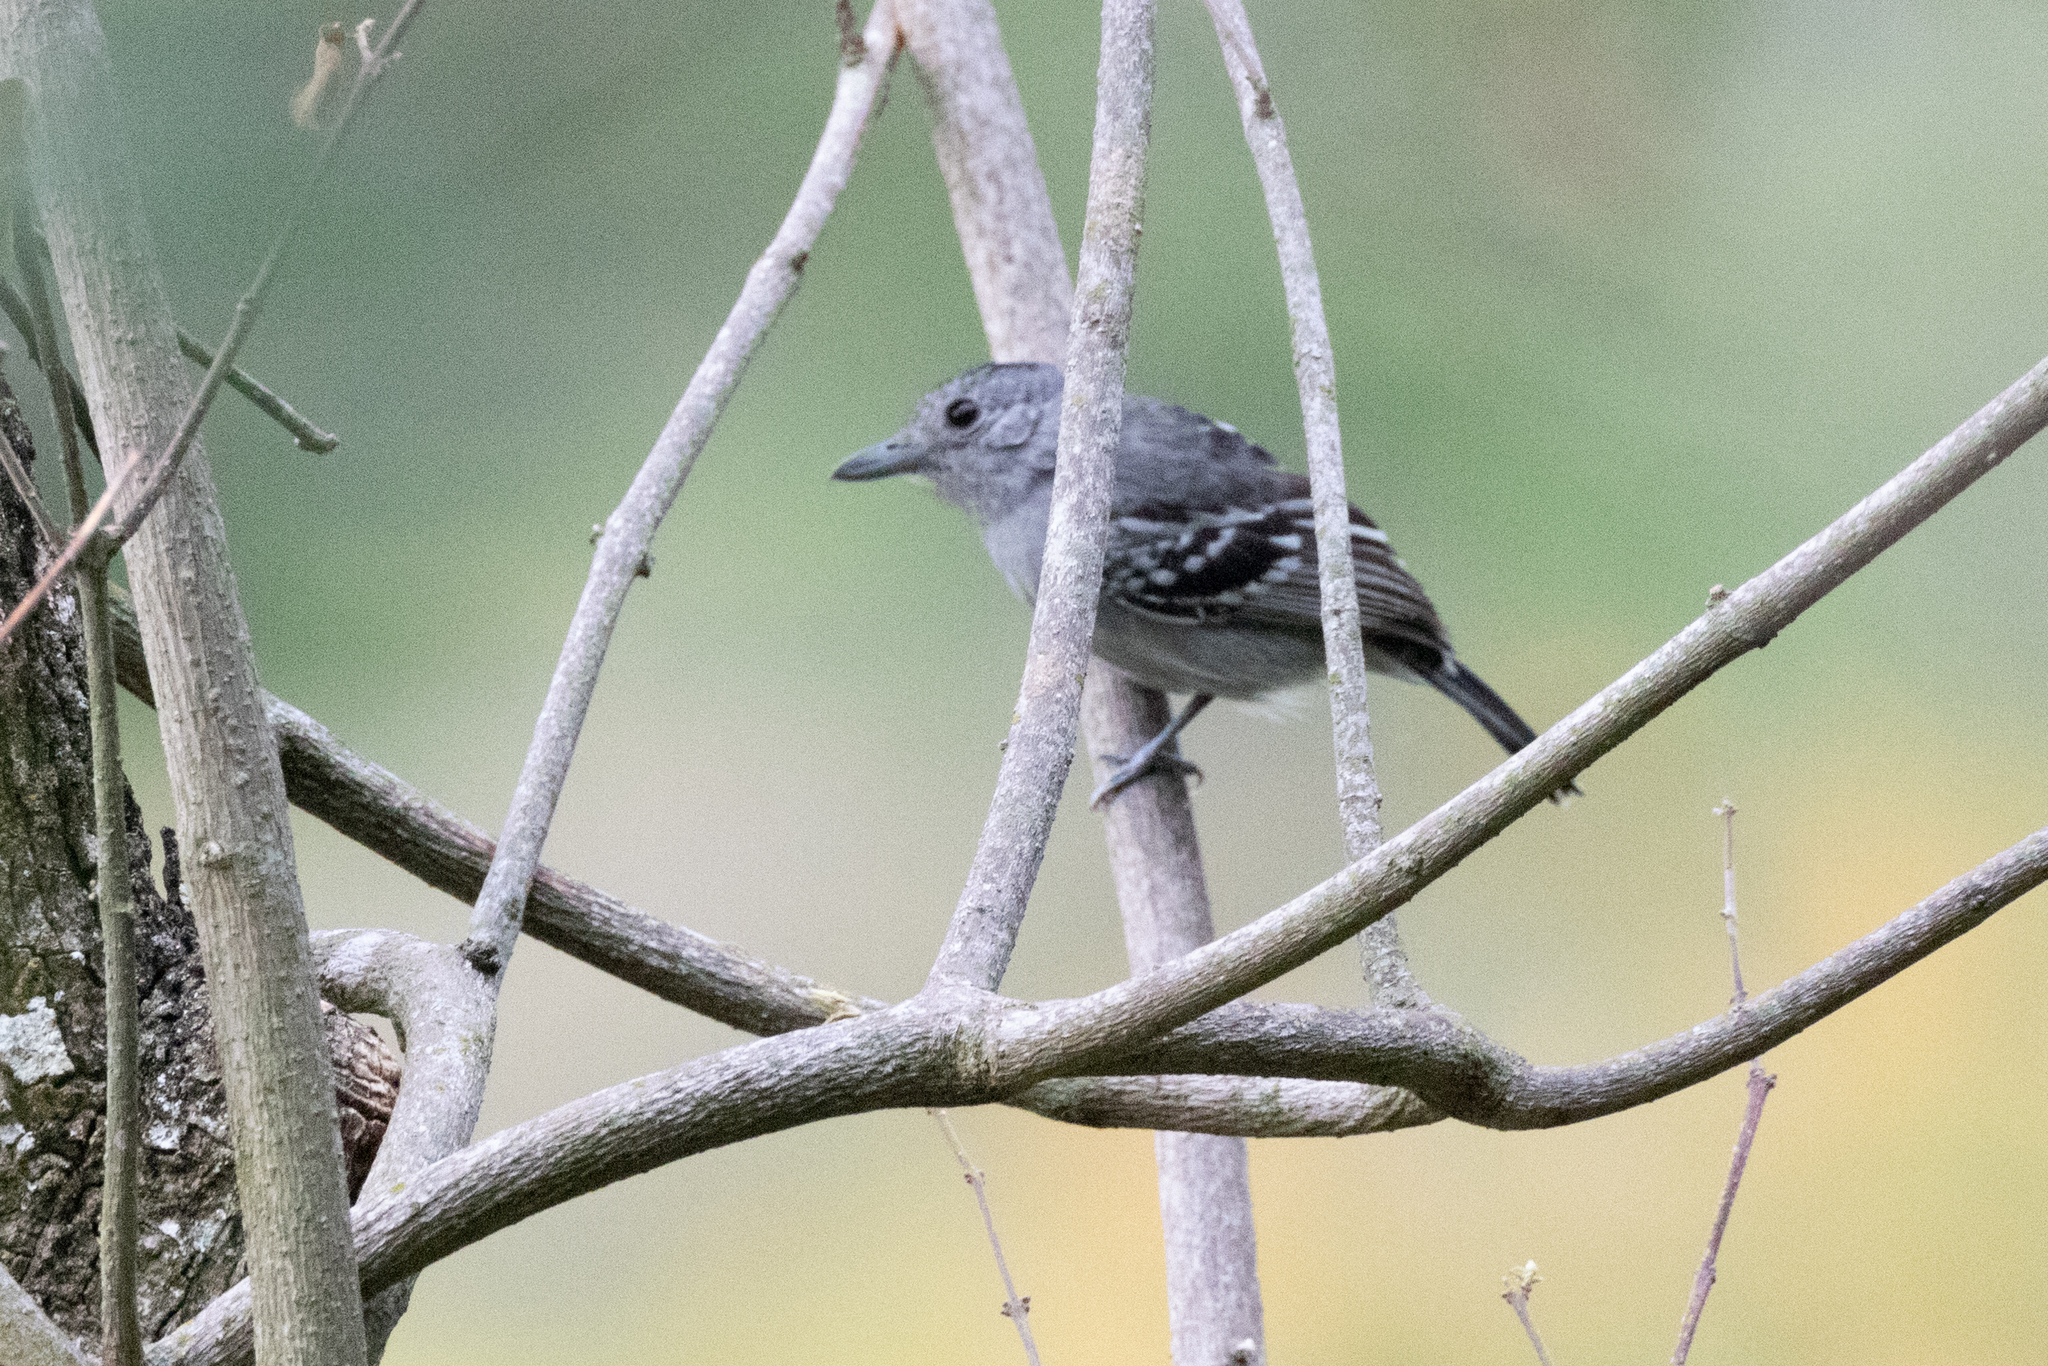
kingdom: Animalia
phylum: Chordata
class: Aves
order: Passeriformes
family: Thamnophilidae
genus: Thamnophilus
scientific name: Thamnophilus atrinucha
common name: Black-crowned antshrike
